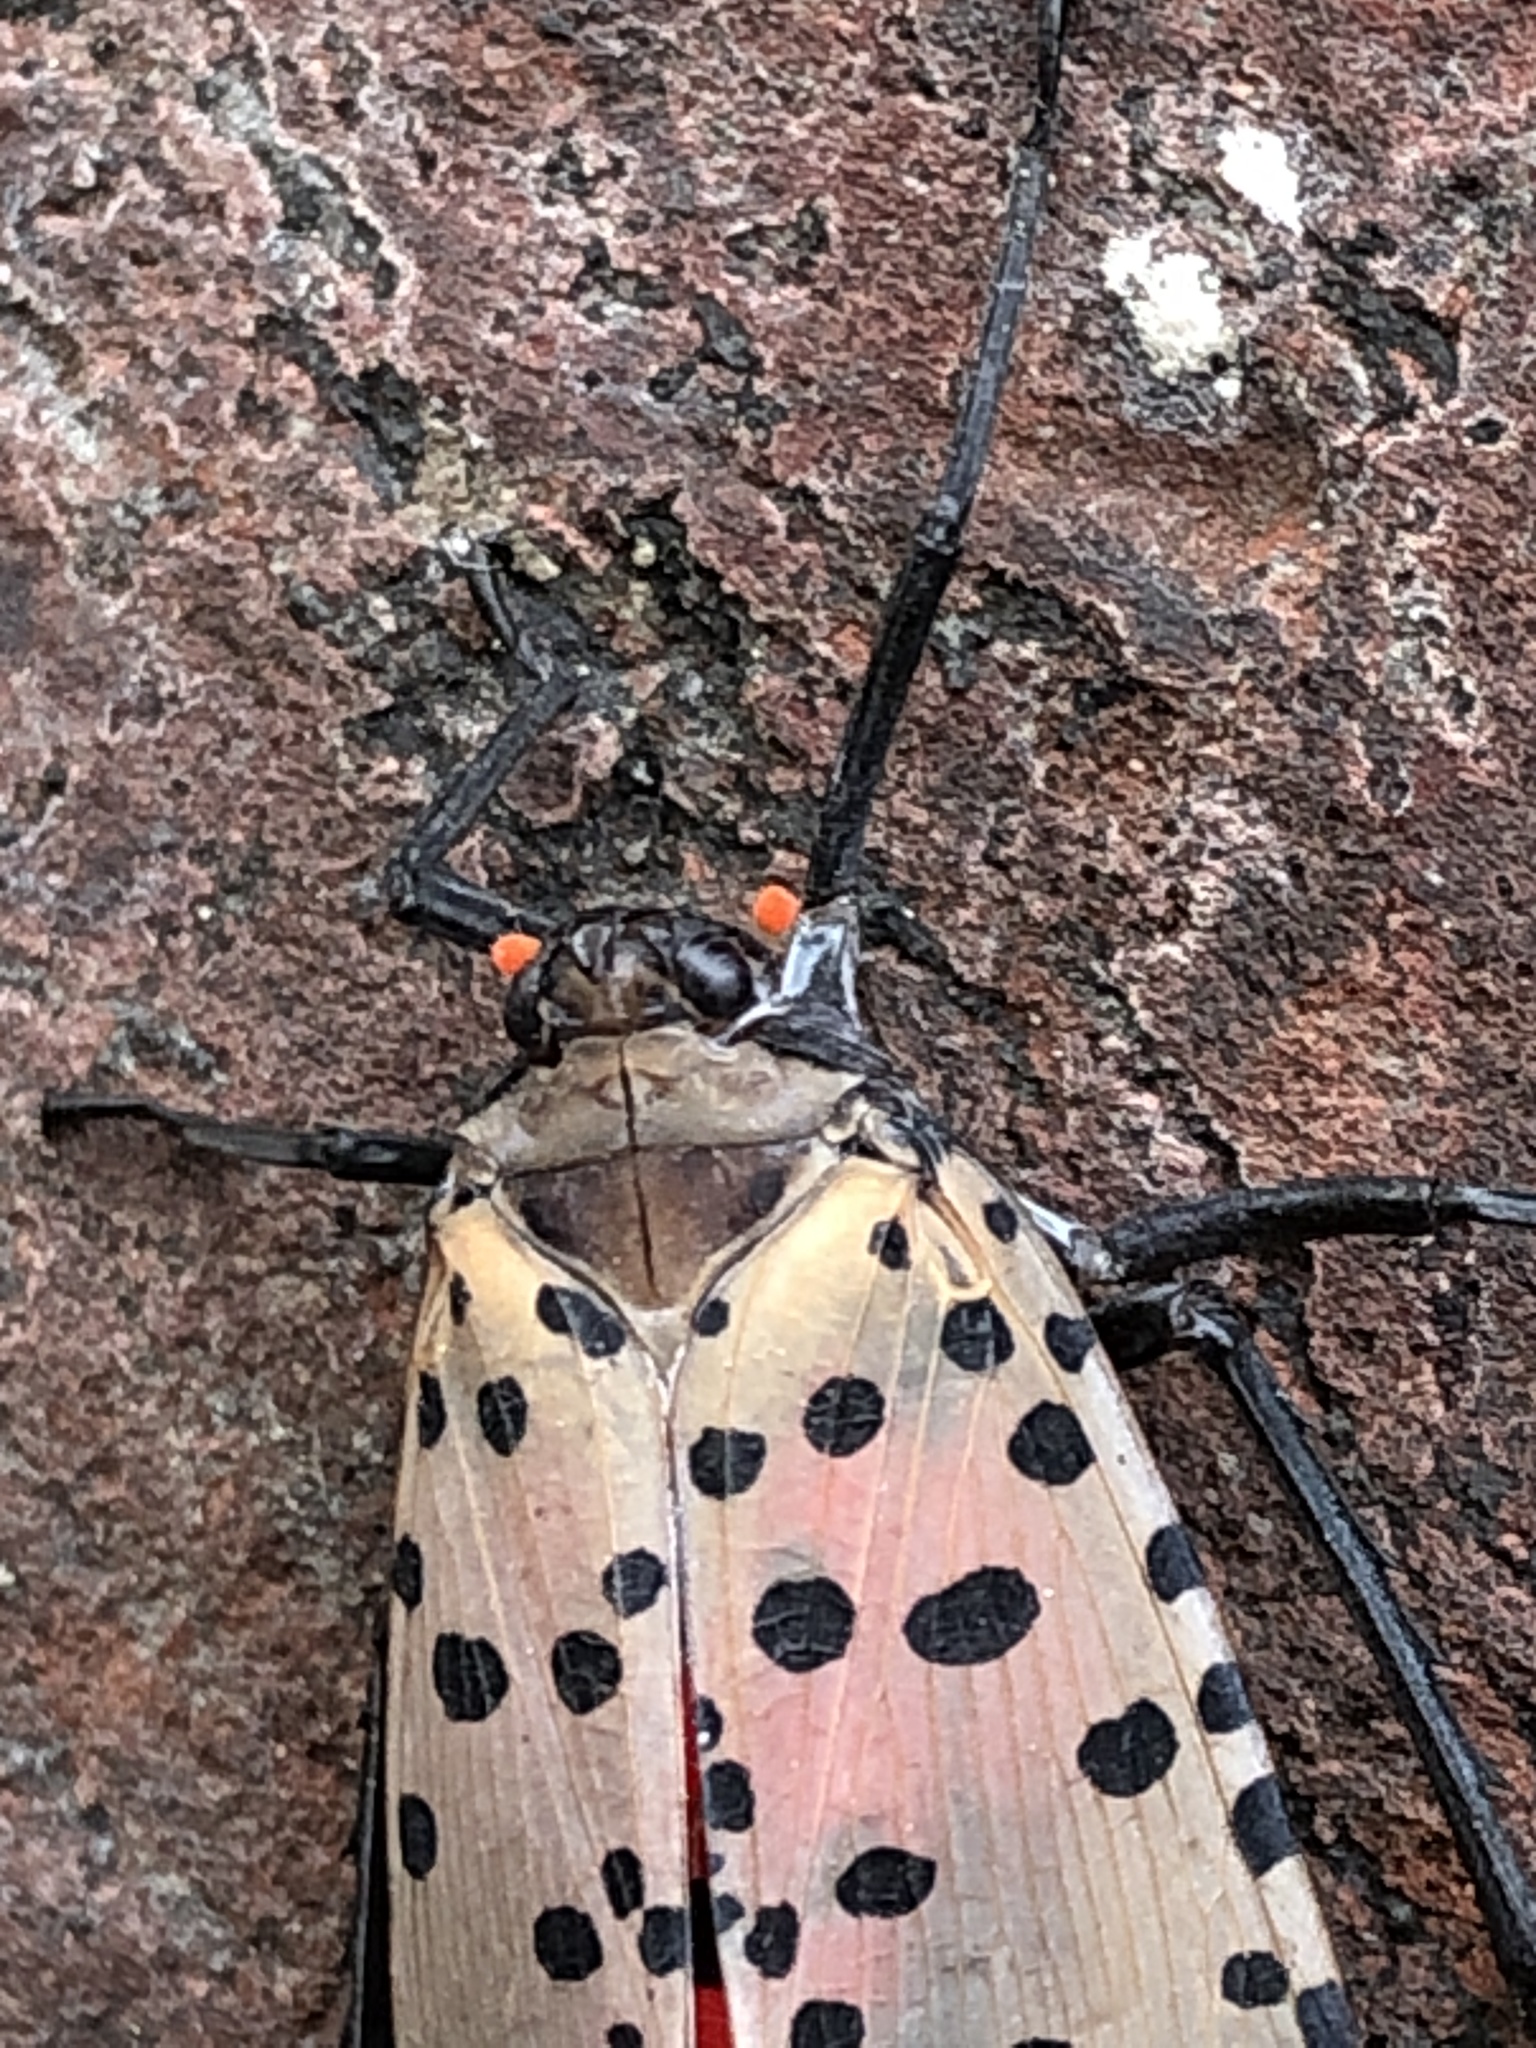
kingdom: Animalia
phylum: Arthropoda
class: Insecta
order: Hemiptera
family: Fulgoridae
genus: Lycorma
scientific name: Lycorma delicatula
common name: Spotted lanternfly
